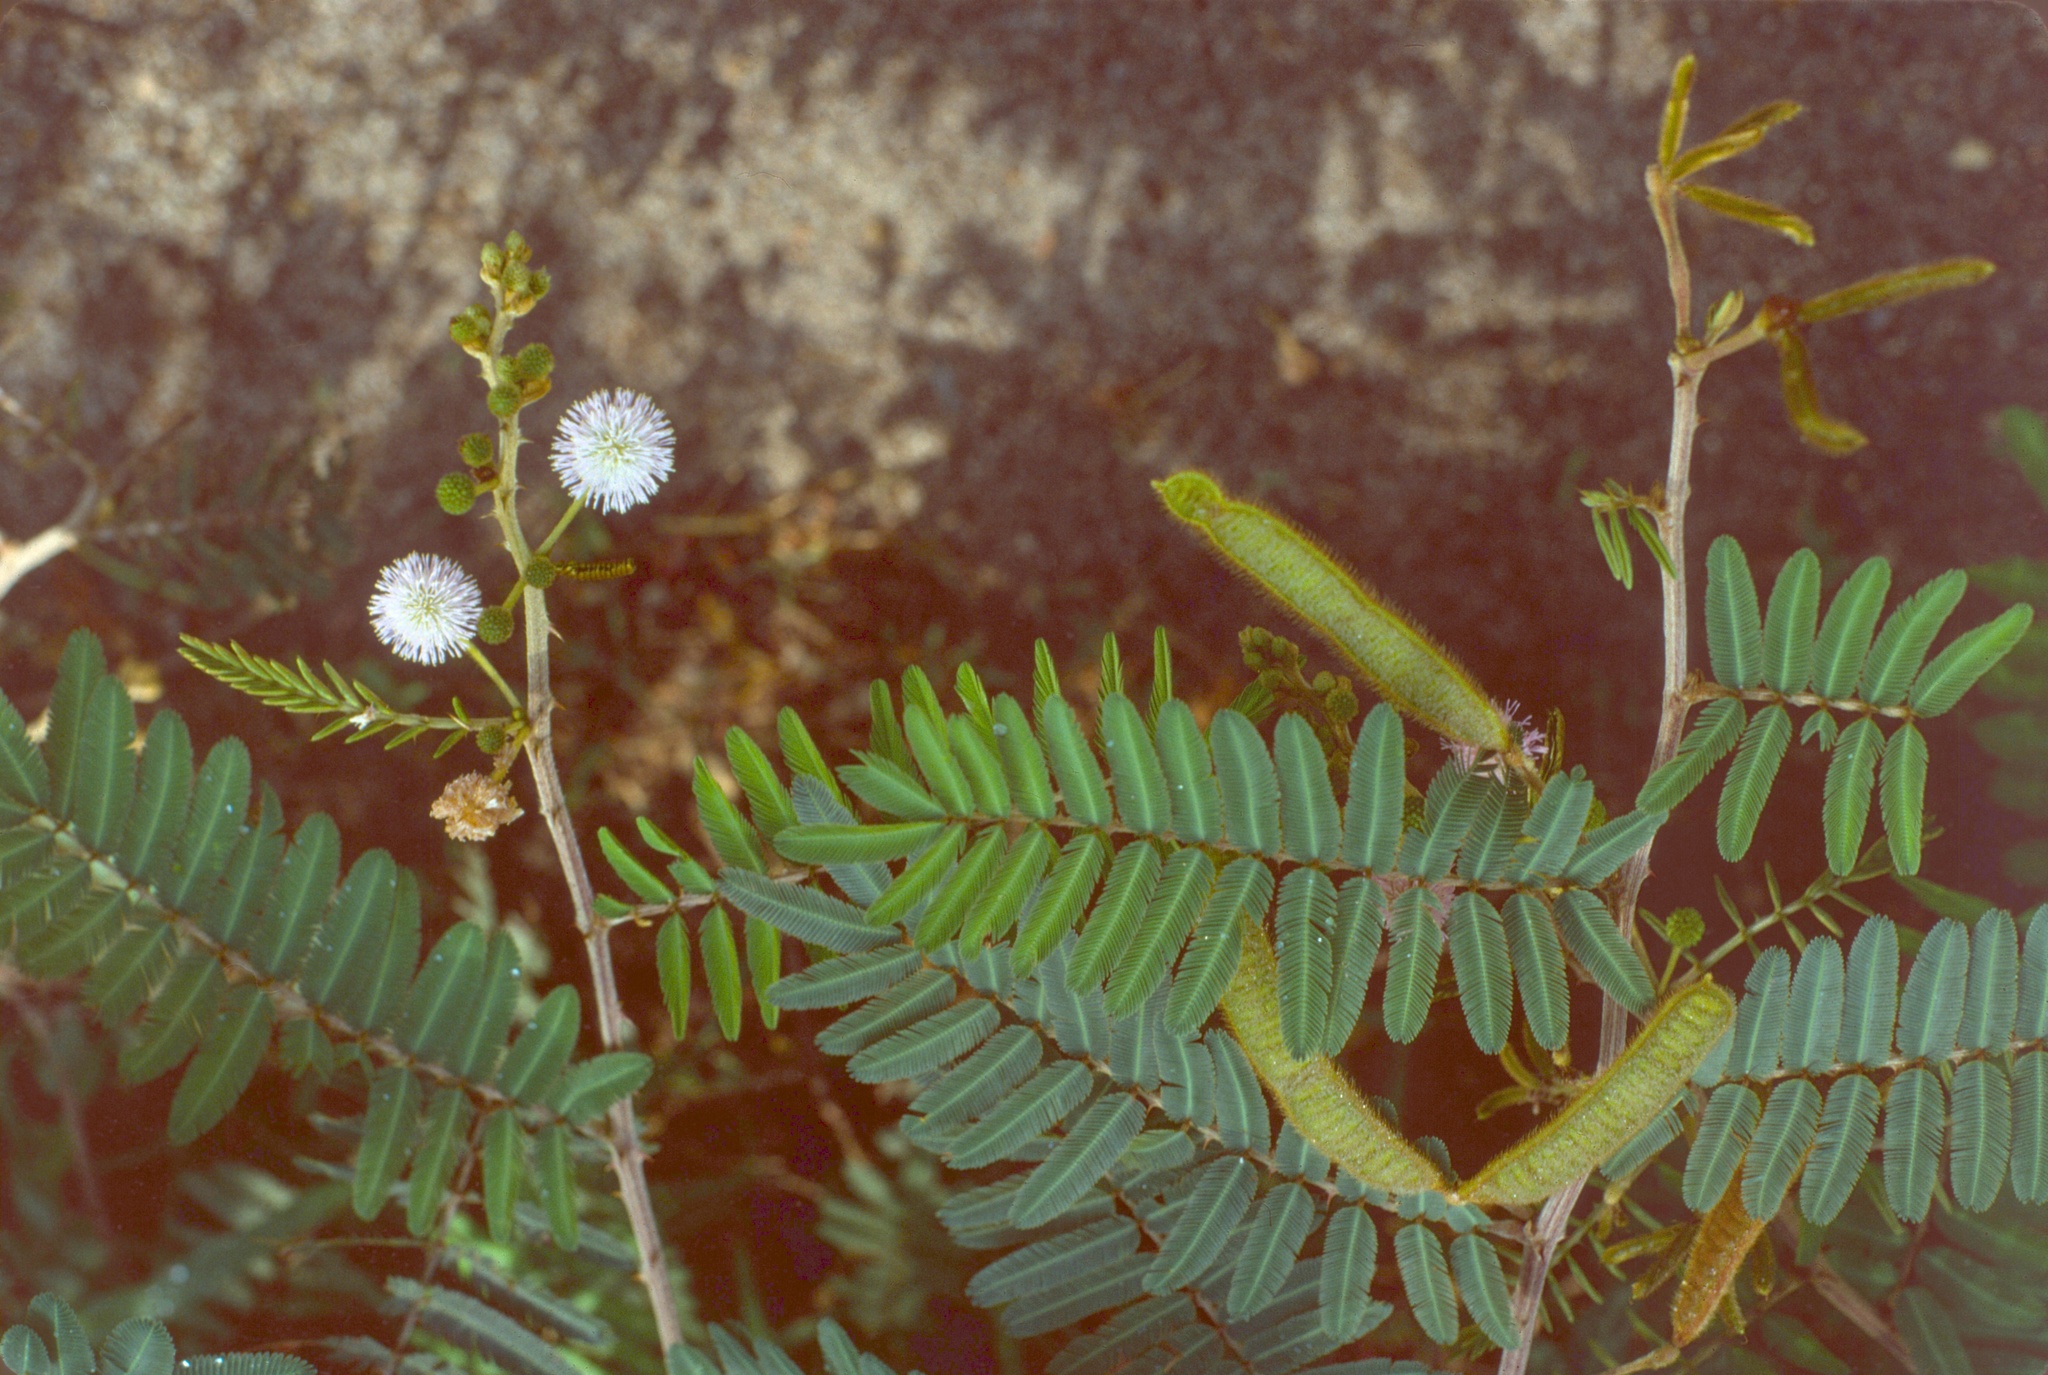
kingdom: Plantae
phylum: Tracheophyta
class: Magnoliopsida
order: Fabales
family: Fabaceae
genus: Mimosa
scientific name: Mimosa pigra
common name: Black mimosa
